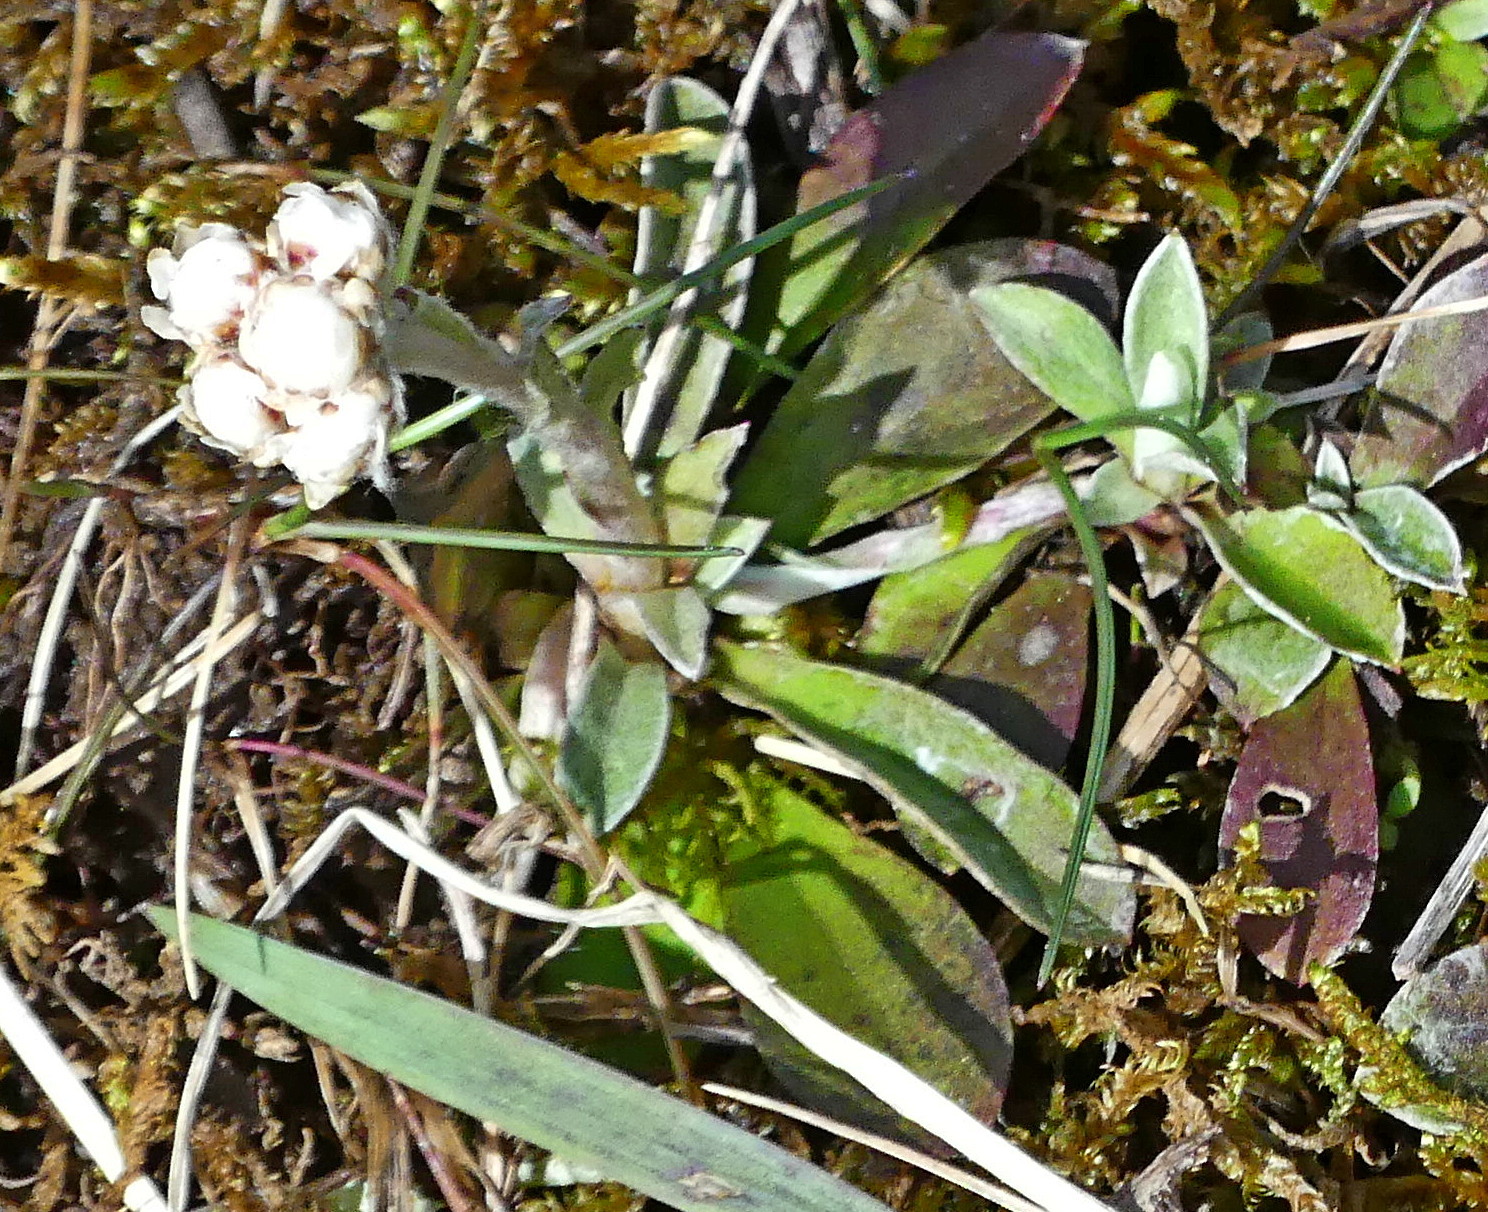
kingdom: Plantae
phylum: Tracheophyta
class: Magnoliopsida
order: Asterales
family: Asteraceae
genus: Antennaria
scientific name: Antennaria howellii
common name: Howell's pussytoes
